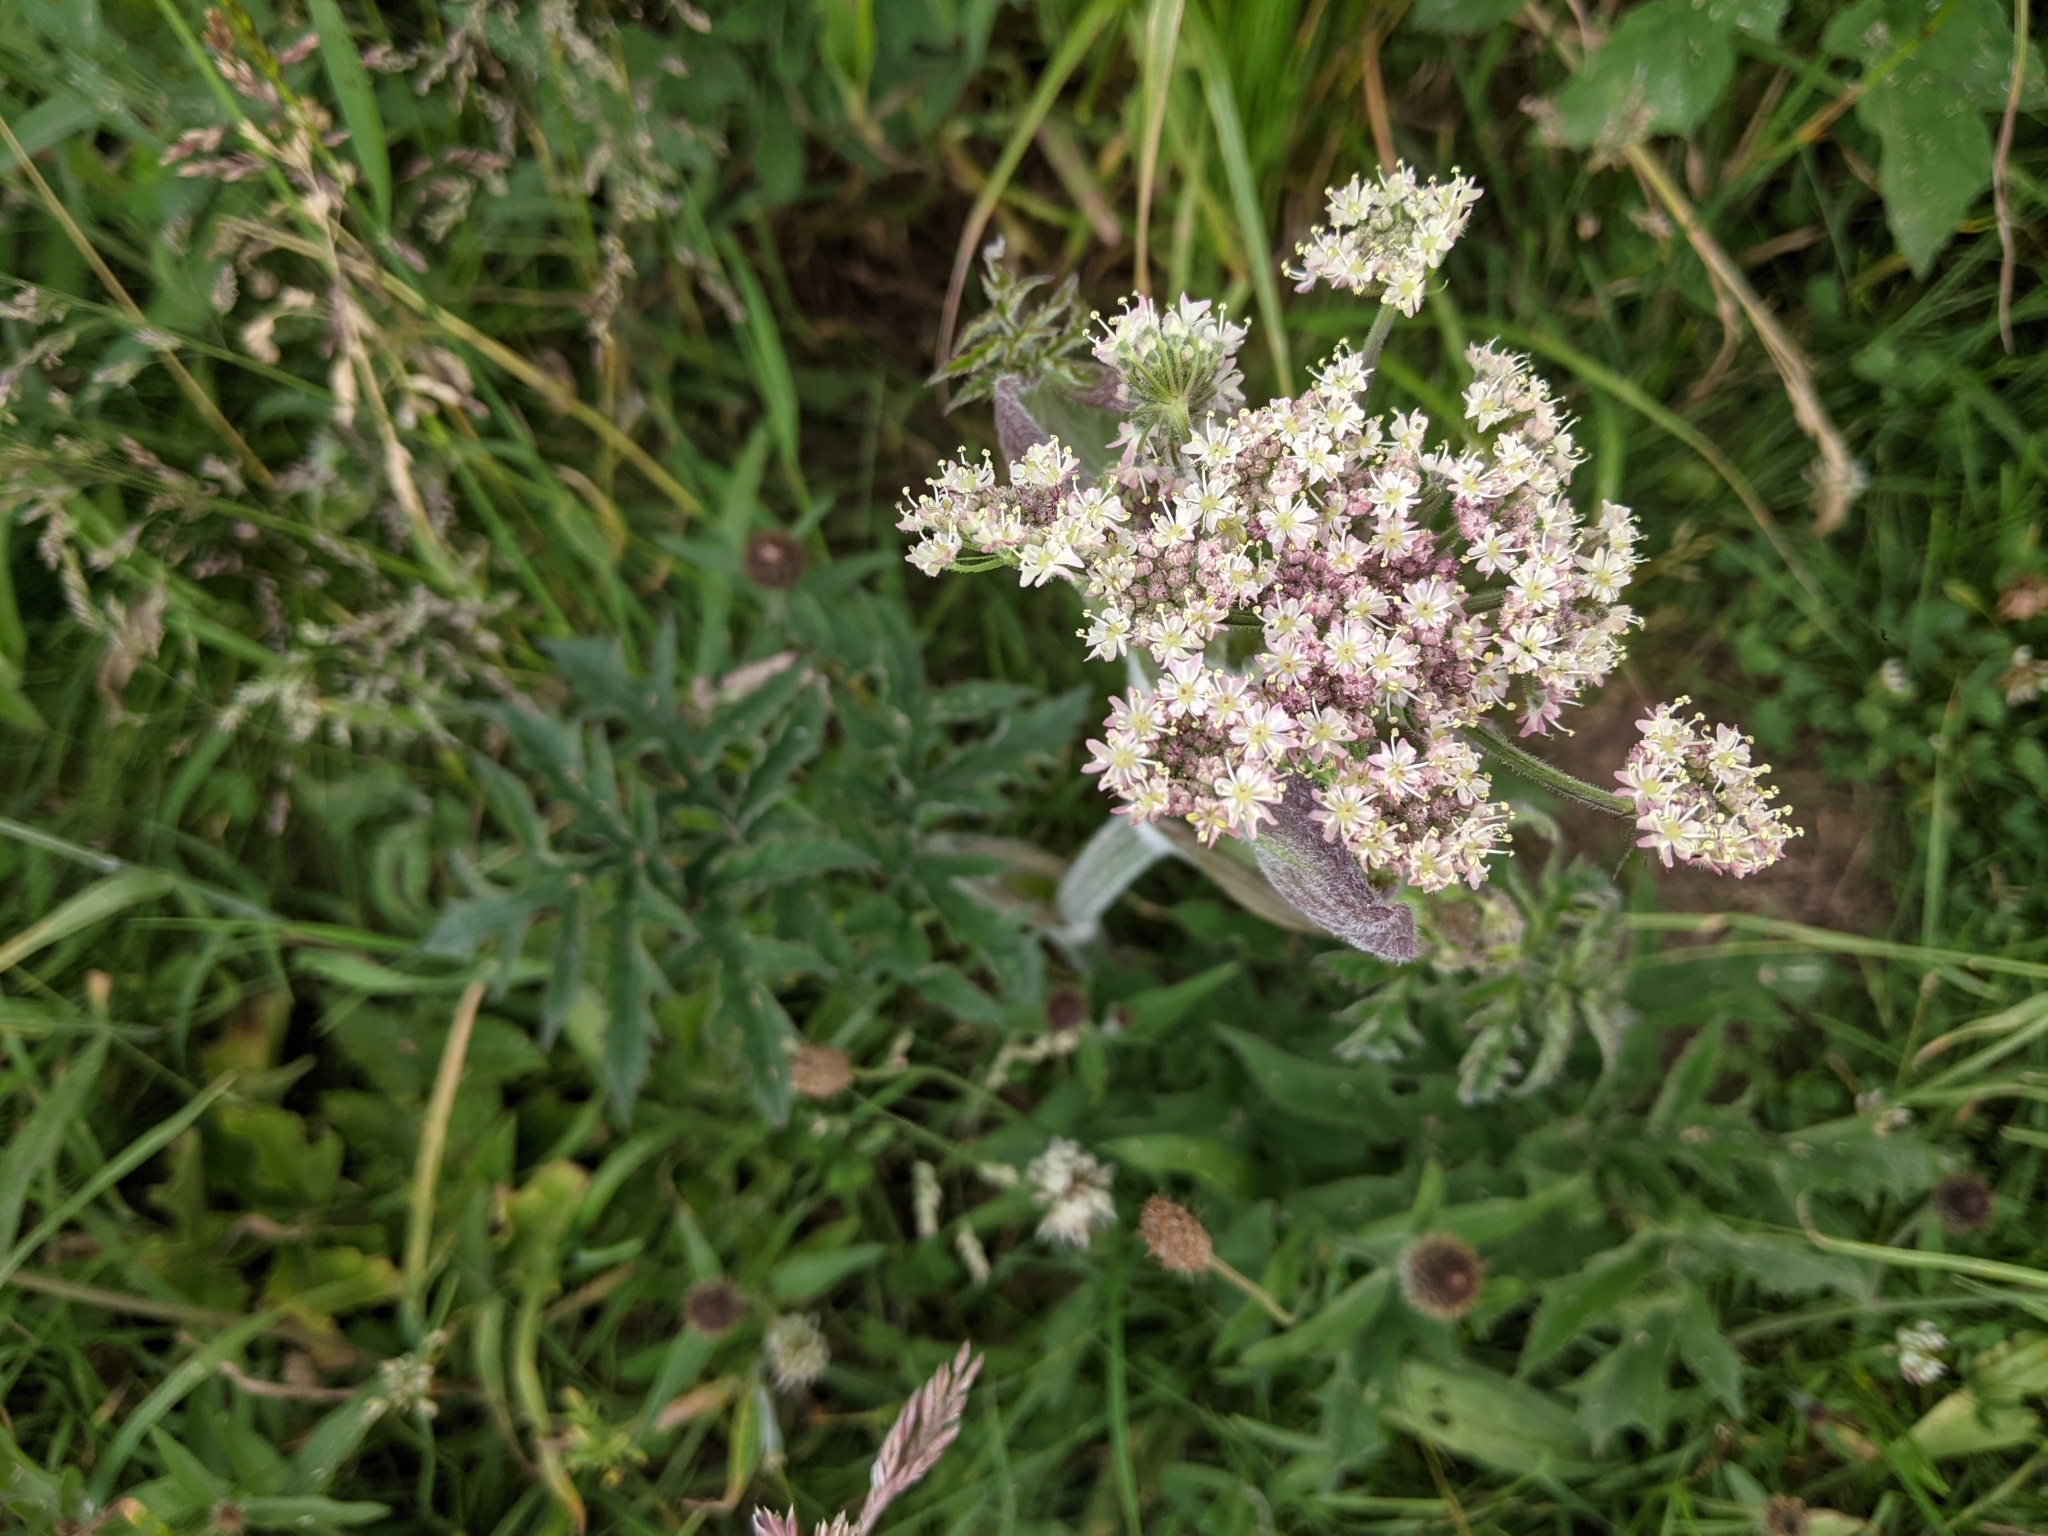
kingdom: Plantae
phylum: Tracheophyta
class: Magnoliopsida
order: Apiales
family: Apiaceae
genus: Heracleum
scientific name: Heracleum sphondylium
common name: Hogweed
